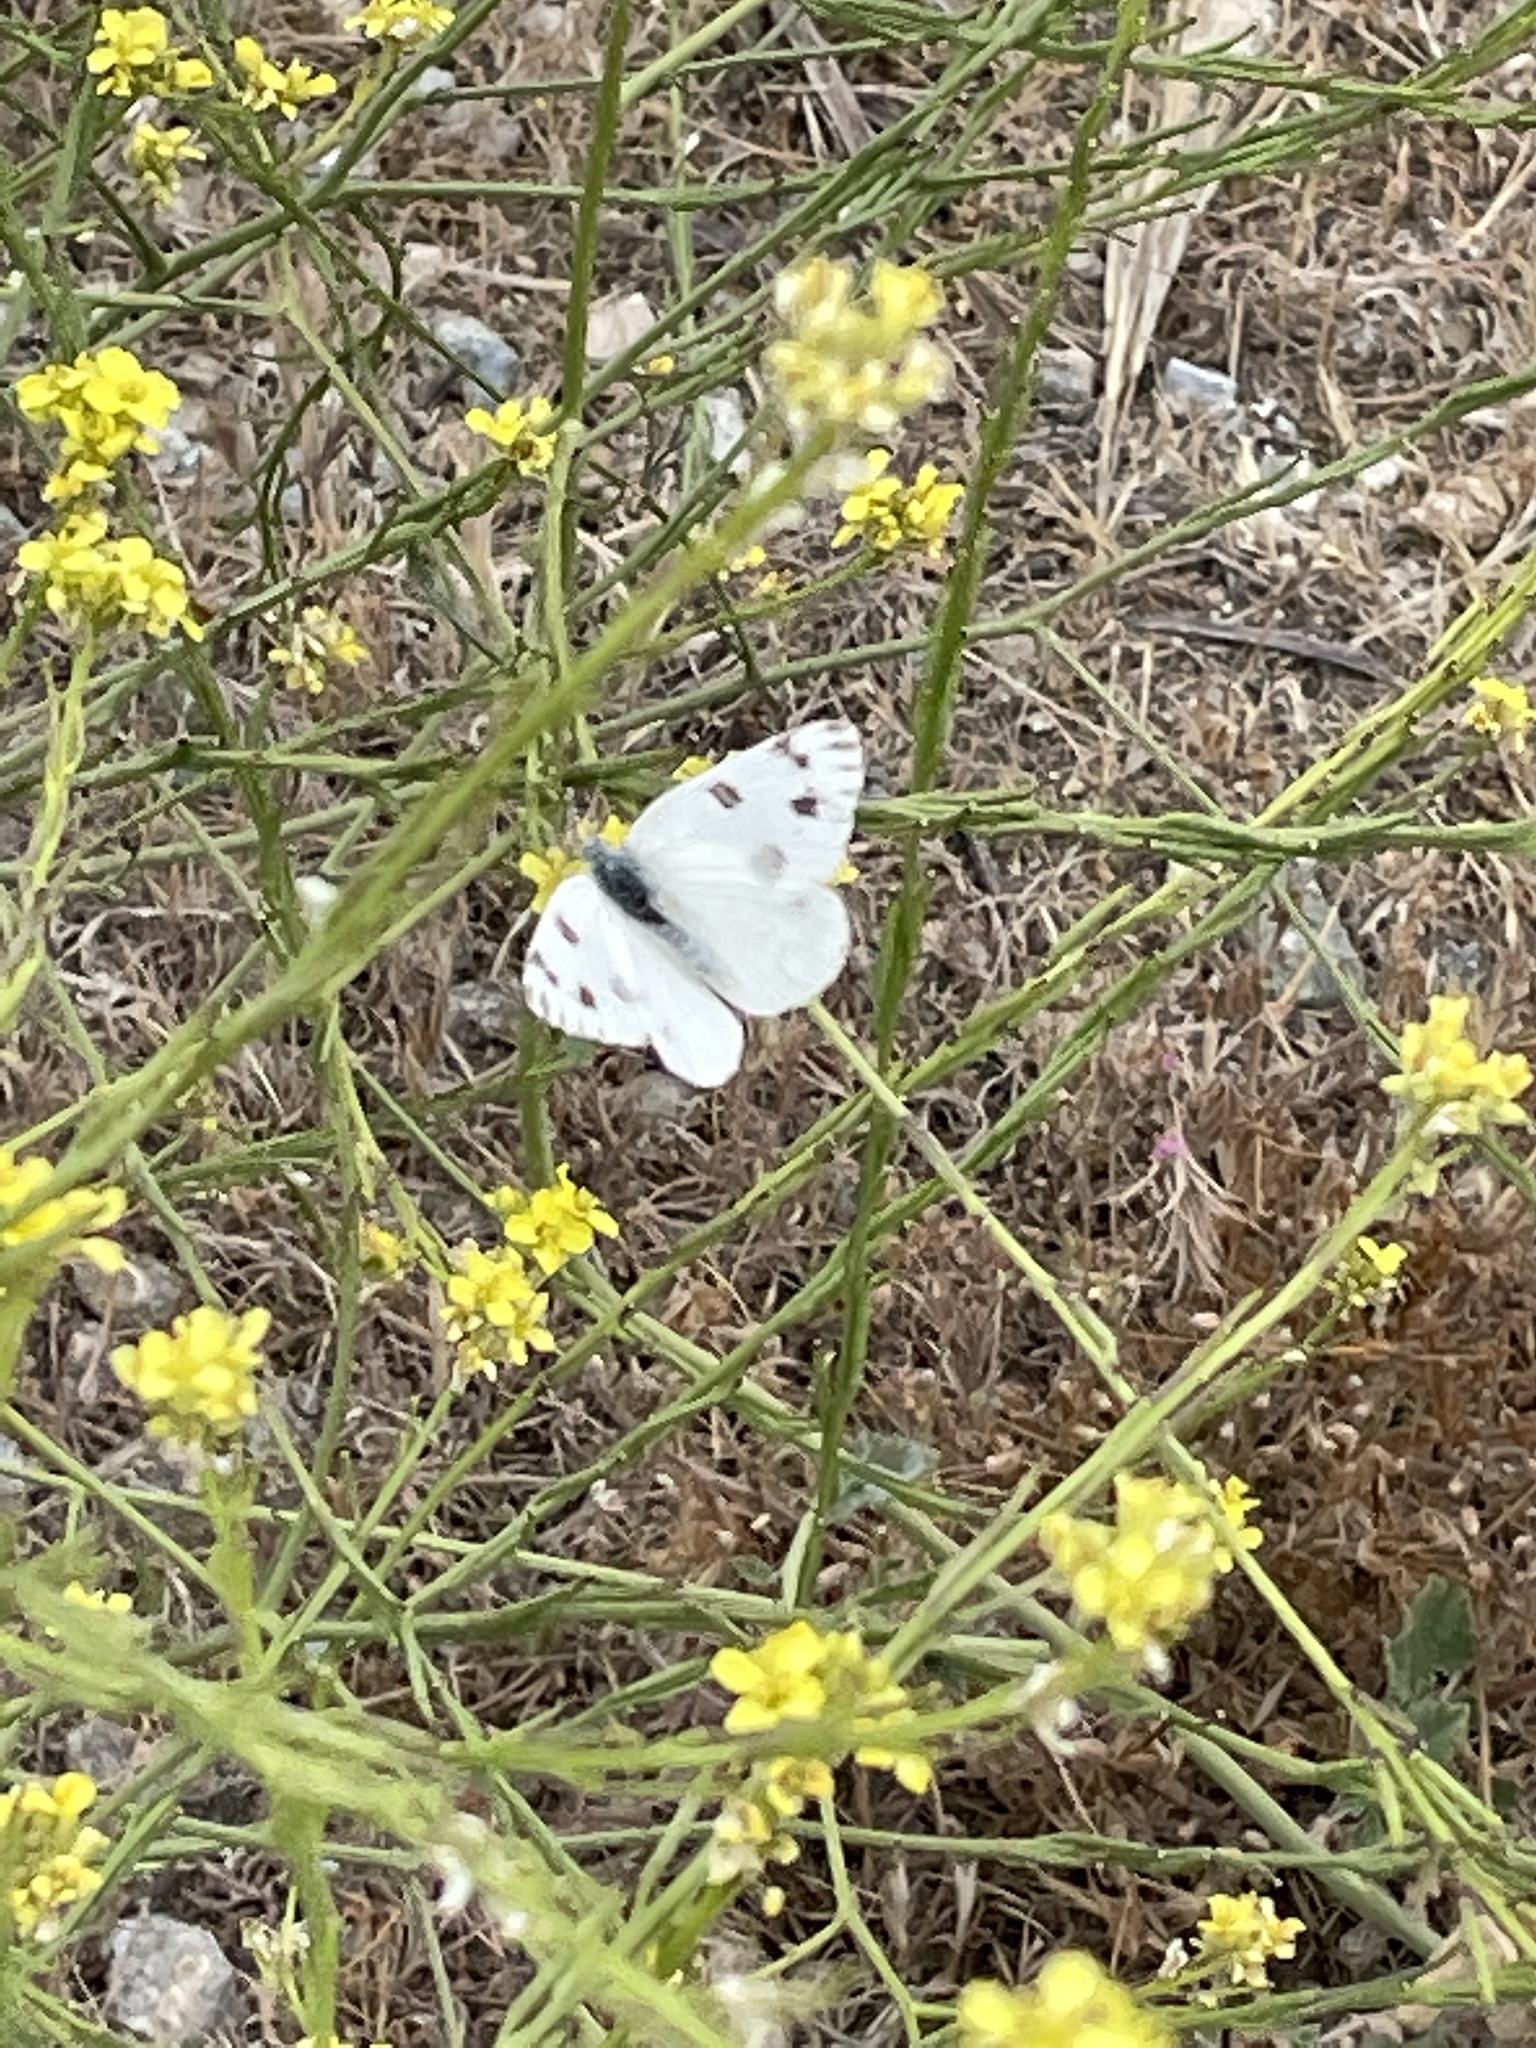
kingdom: Animalia
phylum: Arthropoda
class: Insecta
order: Lepidoptera
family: Pieridae
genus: Pontia
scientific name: Pontia protodice
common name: Checkered white
